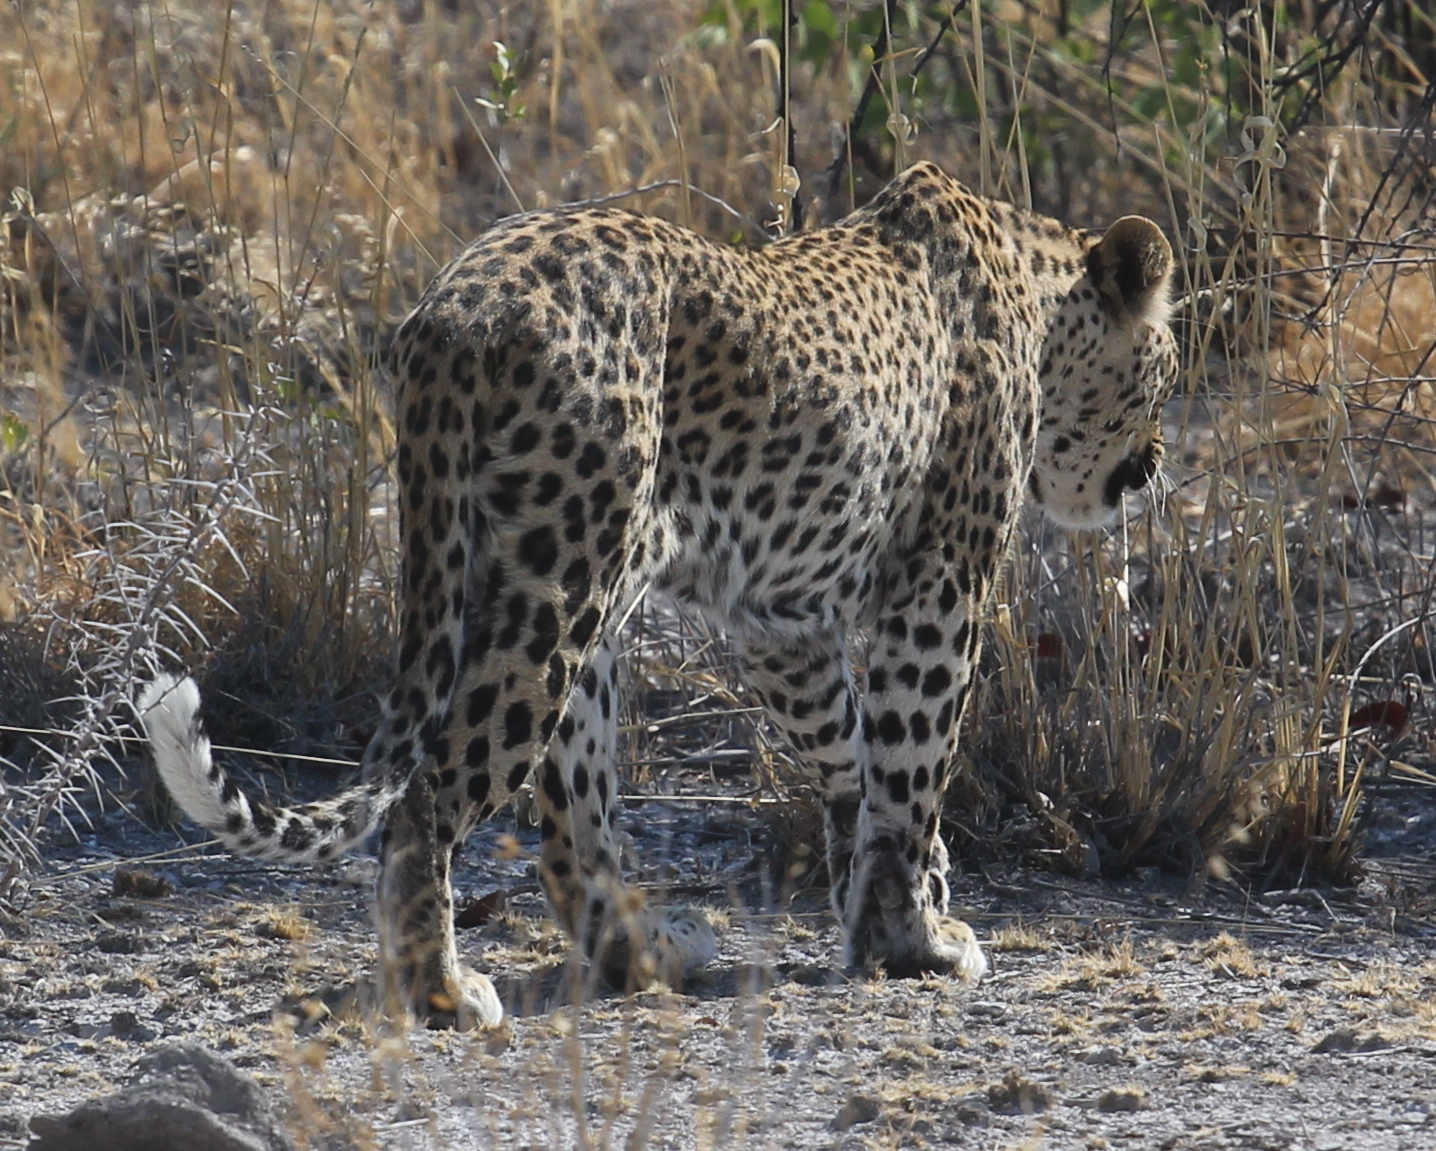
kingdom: Animalia
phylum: Chordata
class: Mammalia
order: Carnivora
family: Felidae
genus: Panthera
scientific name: Panthera pardus
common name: Leopard
